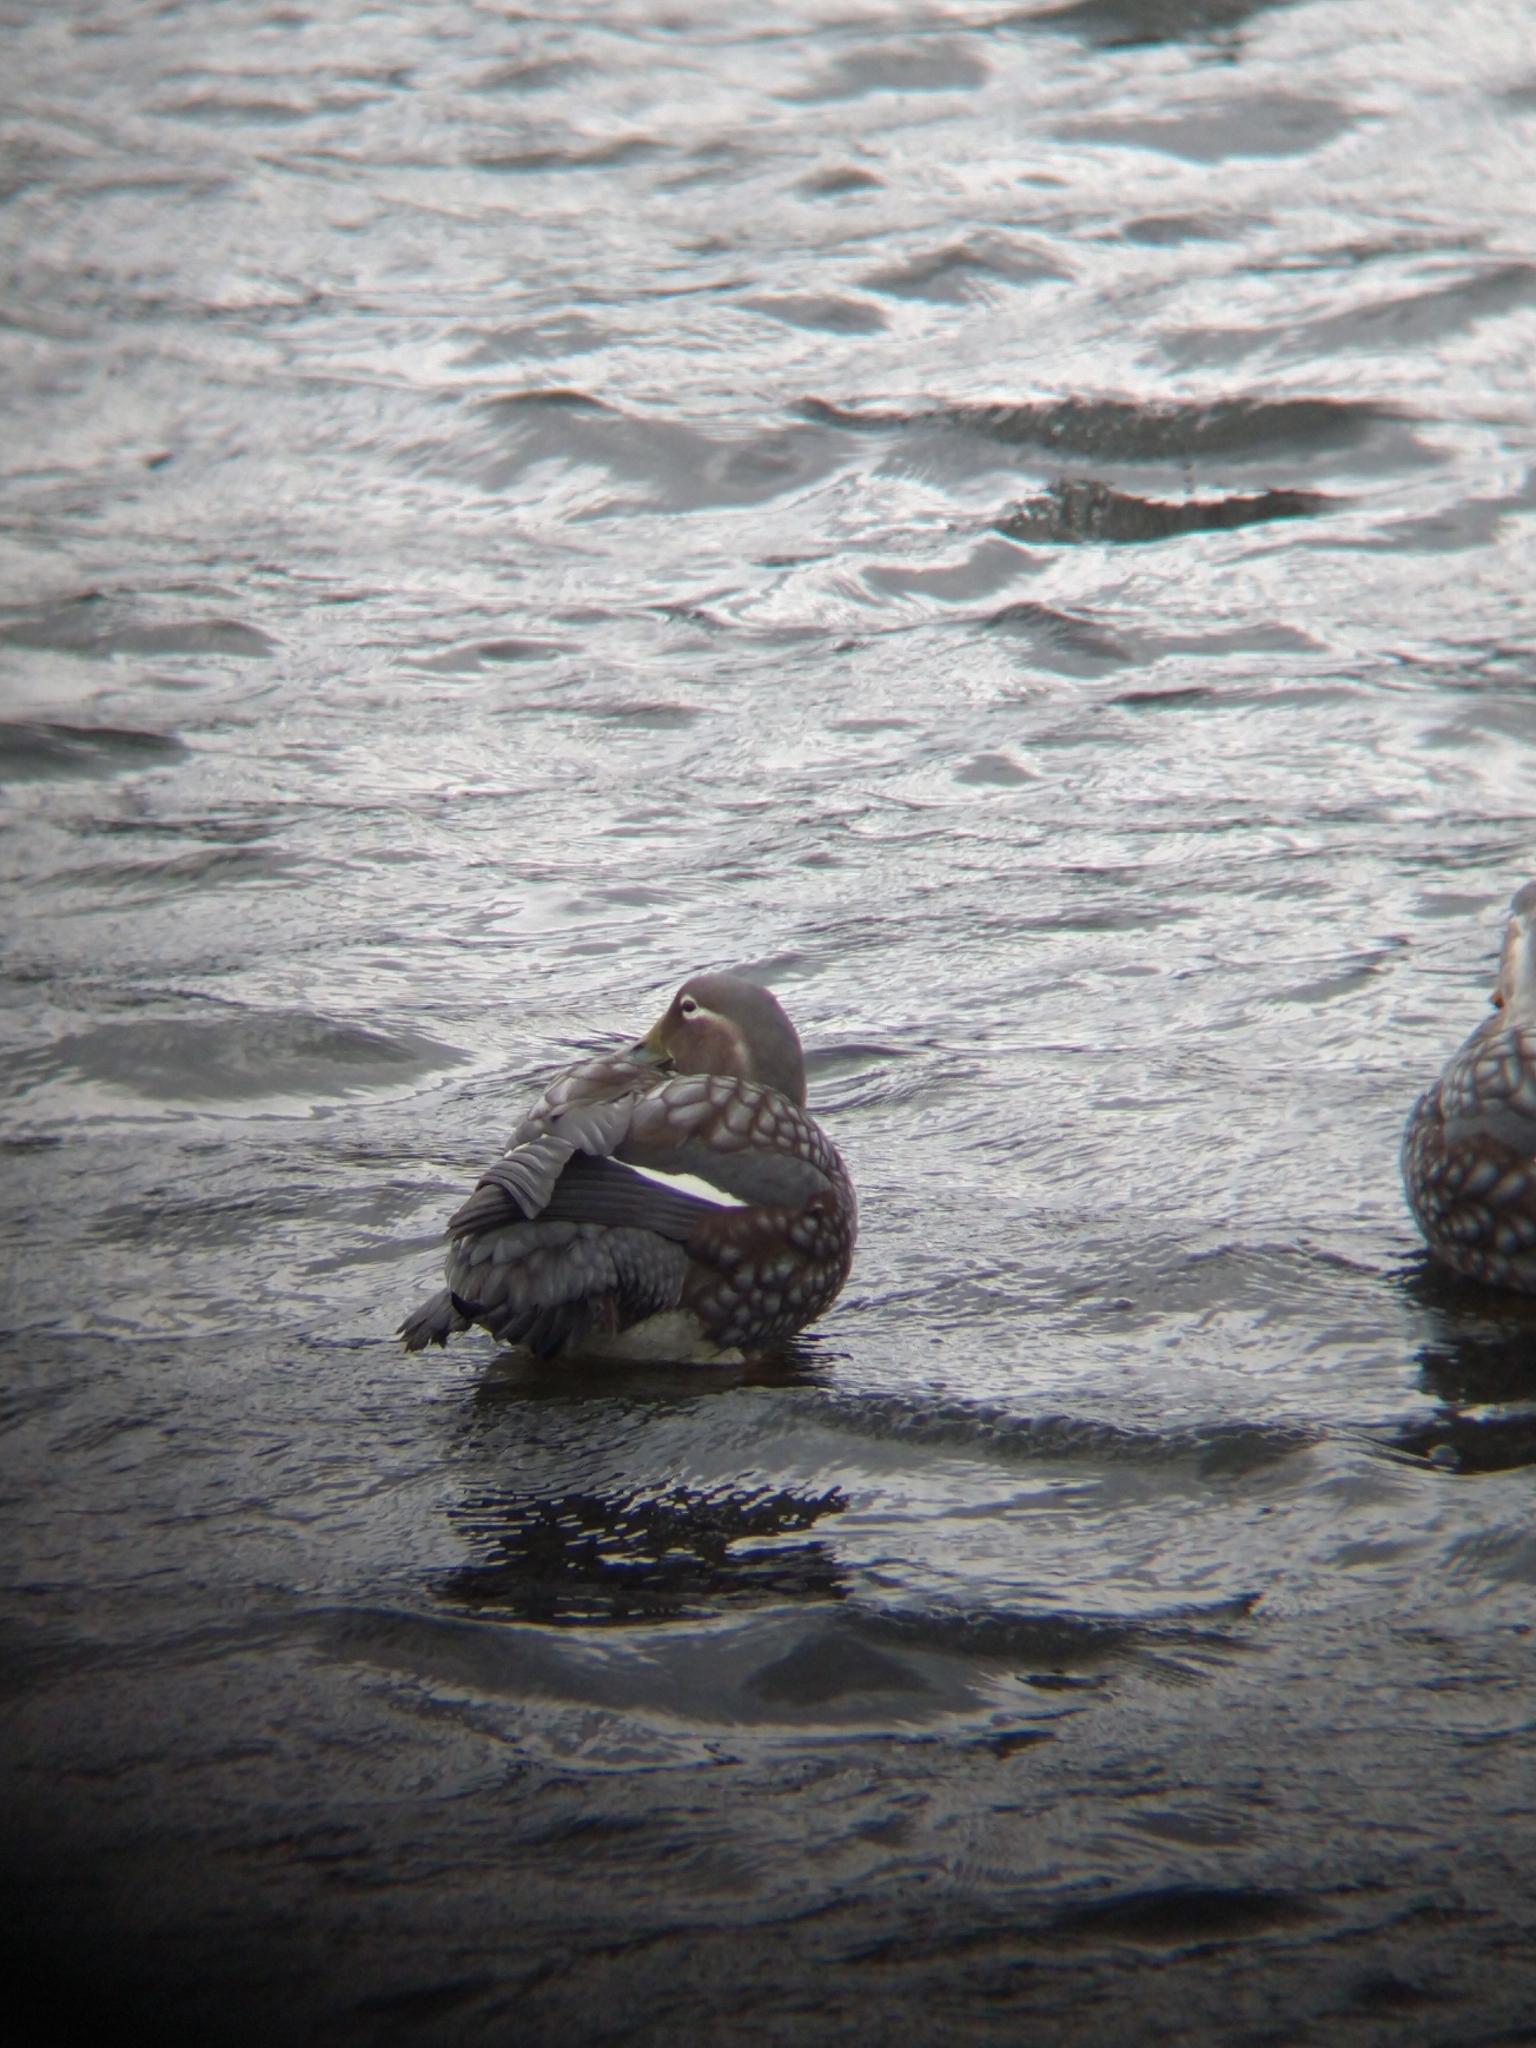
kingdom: Animalia
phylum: Chordata
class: Aves
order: Anseriformes
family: Anatidae
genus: Tachyeres
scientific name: Tachyeres patachonicus
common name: Flying steamer duck
